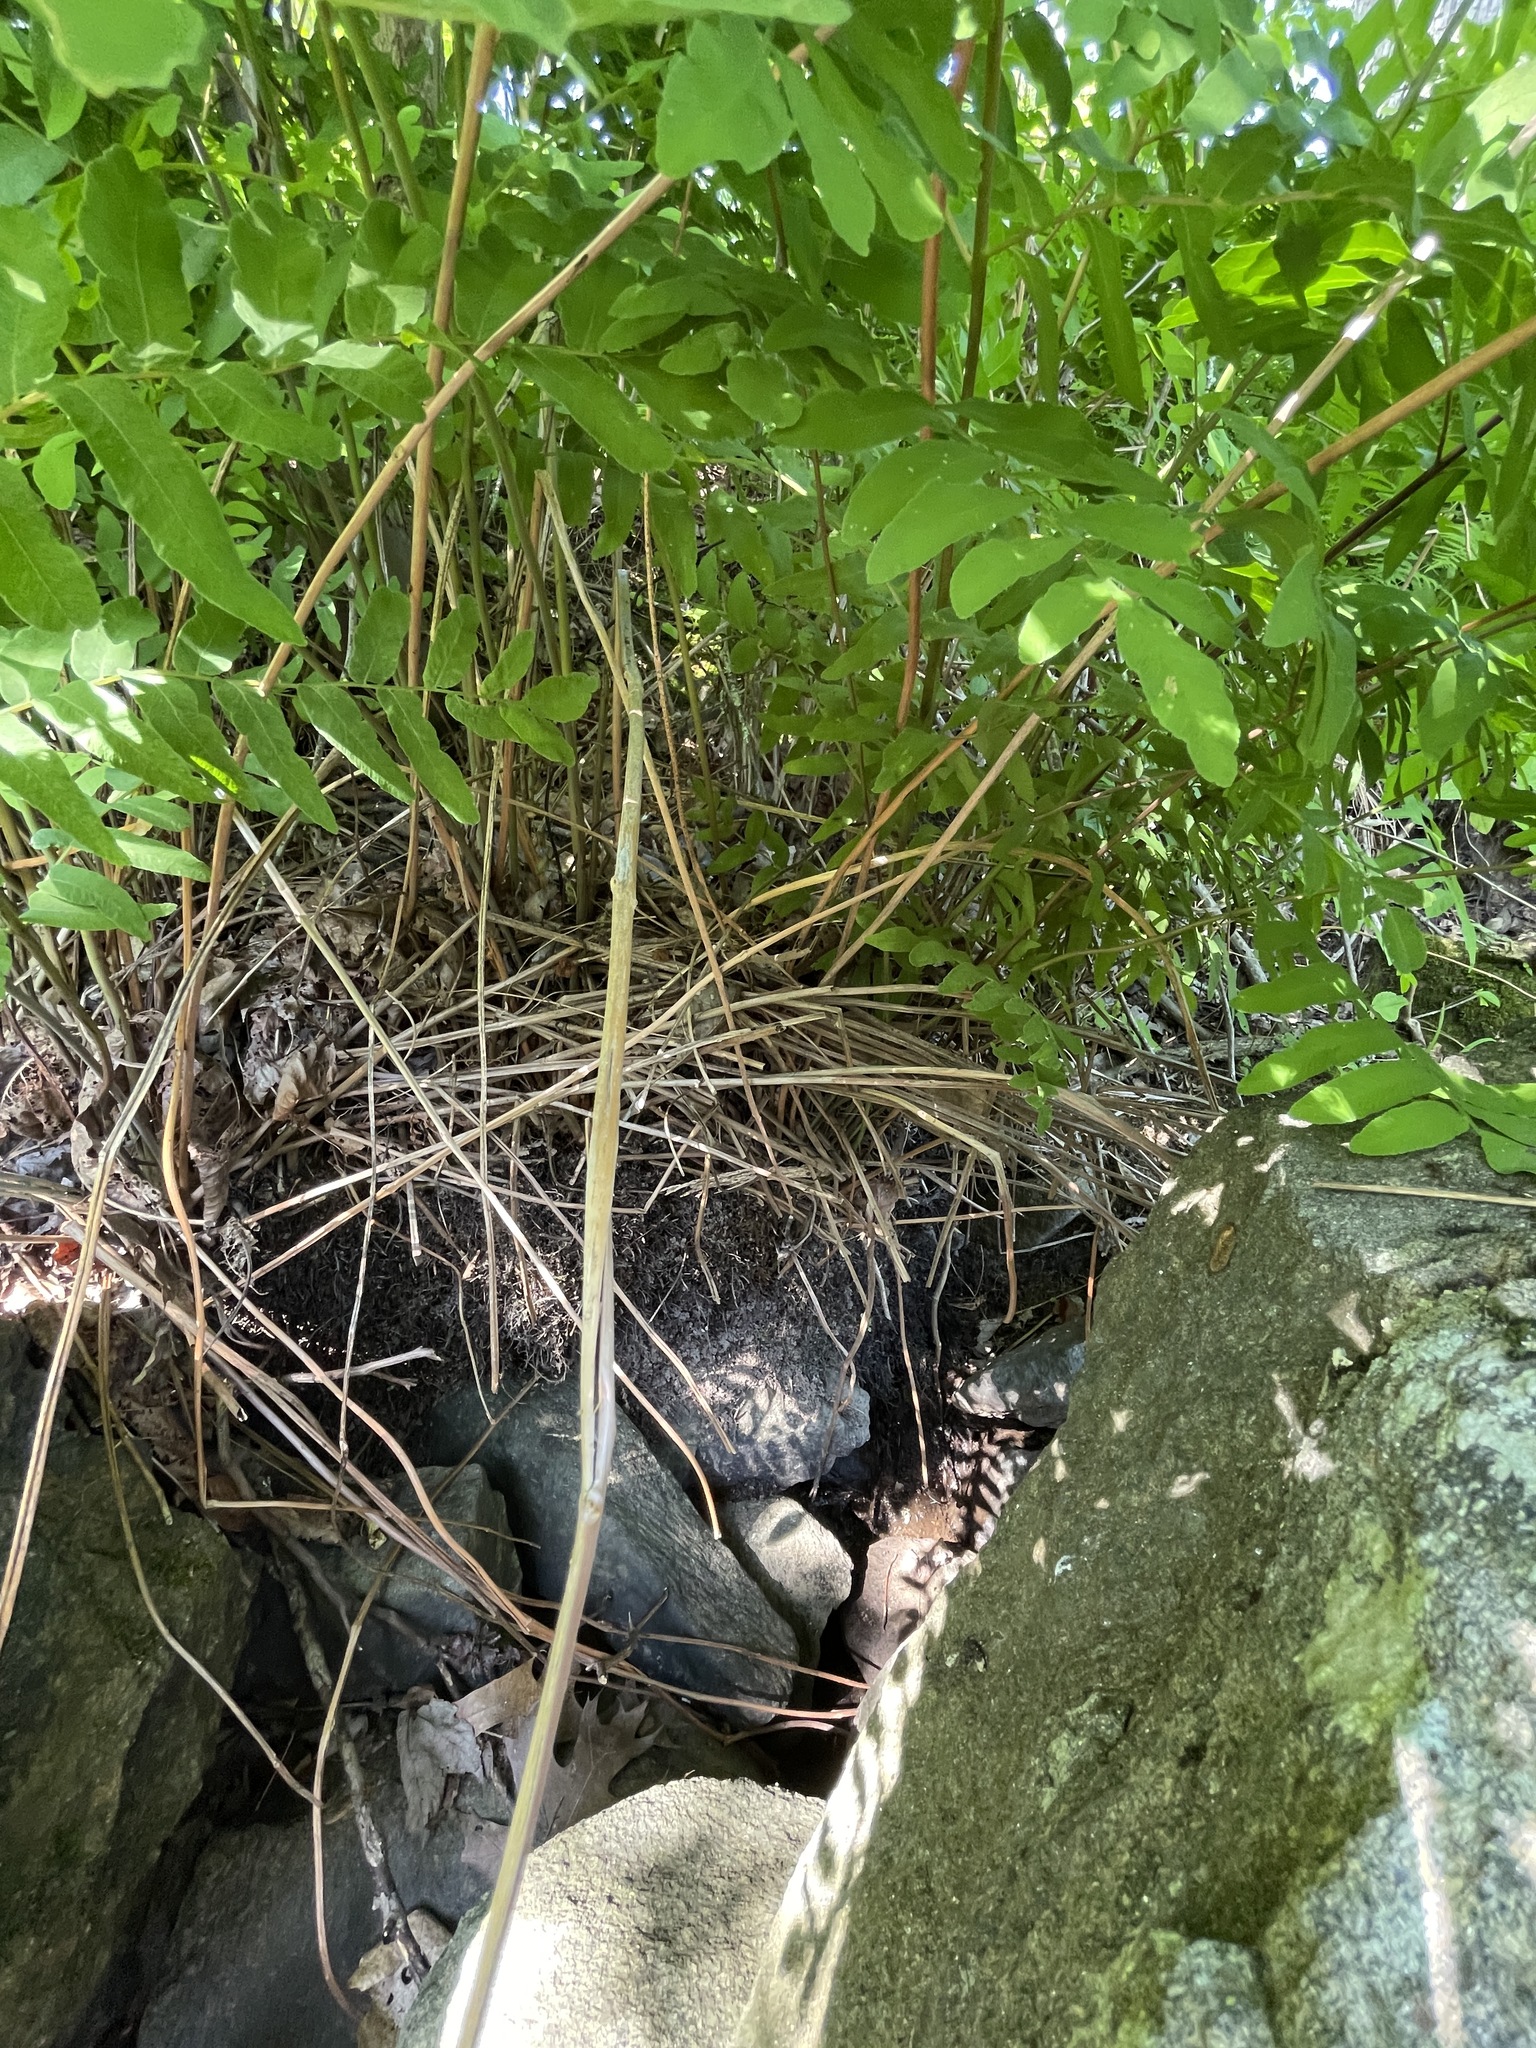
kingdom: Plantae
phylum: Tracheophyta
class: Polypodiopsida
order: Osmundales
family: Osmundaceae
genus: Osmunda
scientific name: Osmunda spectabilis
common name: American royal fern
